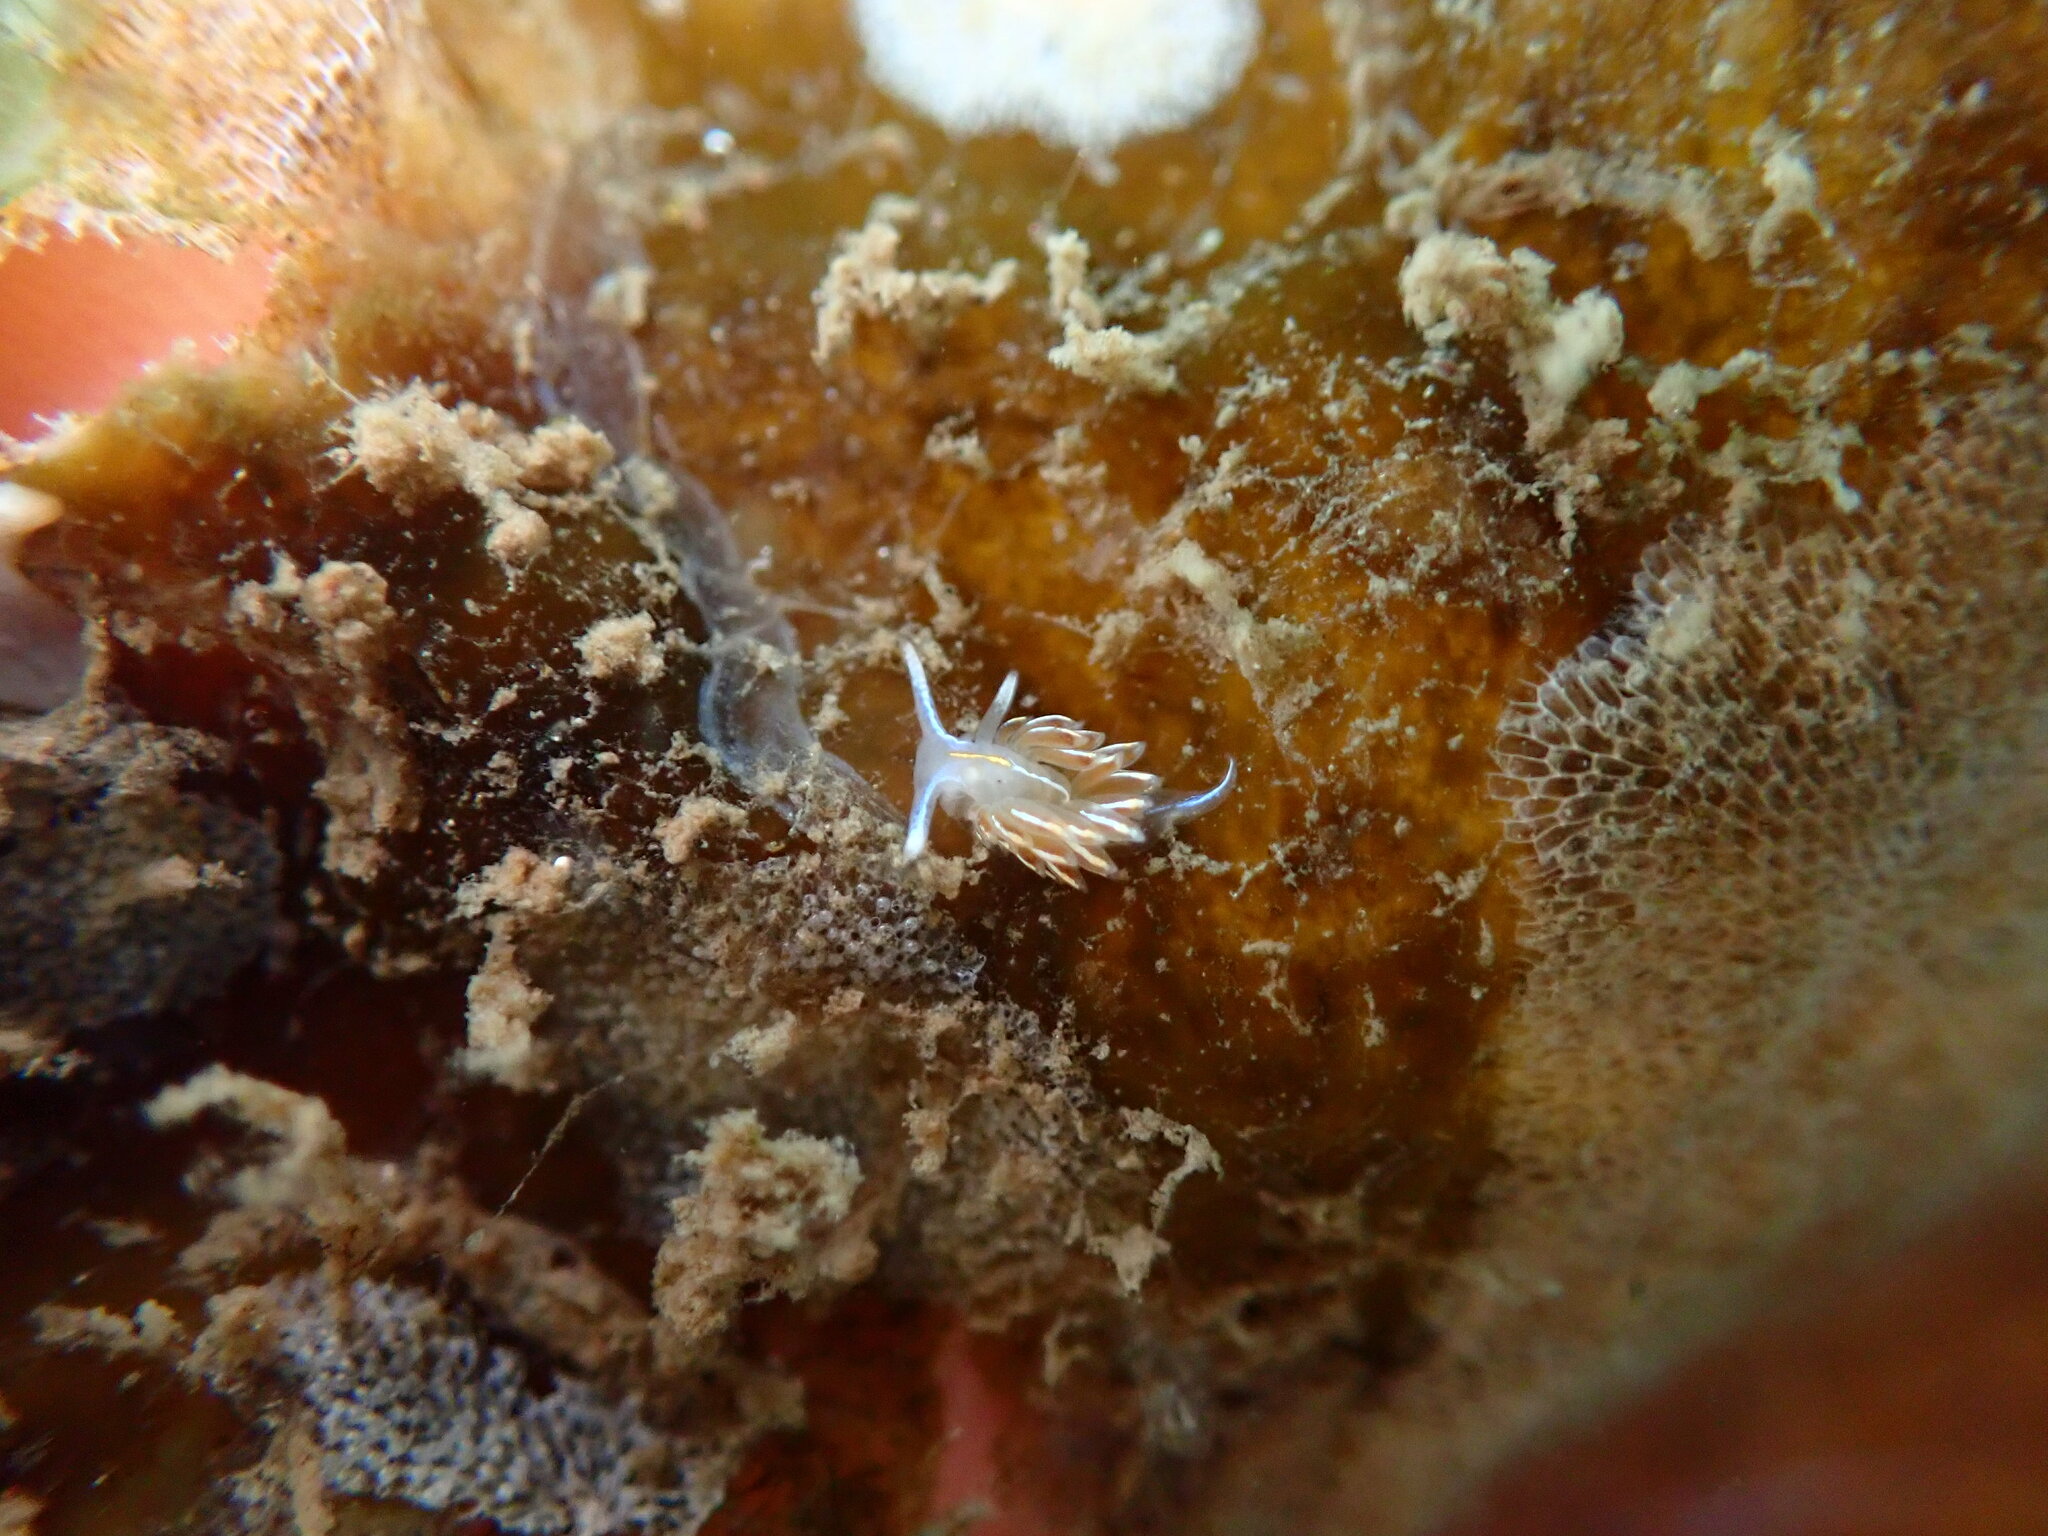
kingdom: Animalia
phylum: Mollusca
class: Gastropoda
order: Nudibranchia
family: Myrrhinidae
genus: Hermissenda
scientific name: Hermissenda crassicornis
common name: Hermissenda
